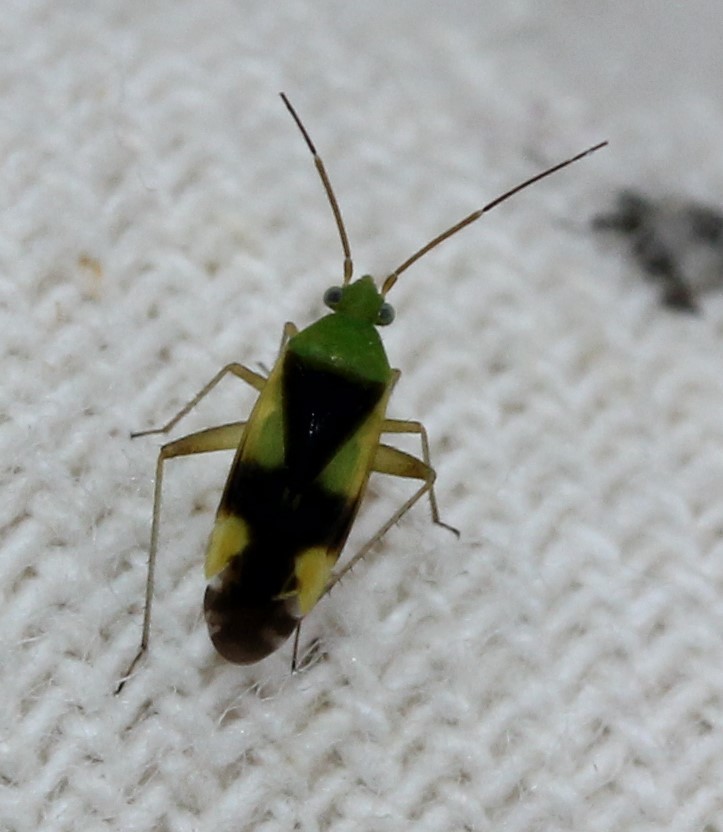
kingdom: Animalia
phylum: Arthropoda
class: Insecta
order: Hemiptera
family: Miridae
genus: Reuteroscopus
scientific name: Reuteroscopus ornatus
